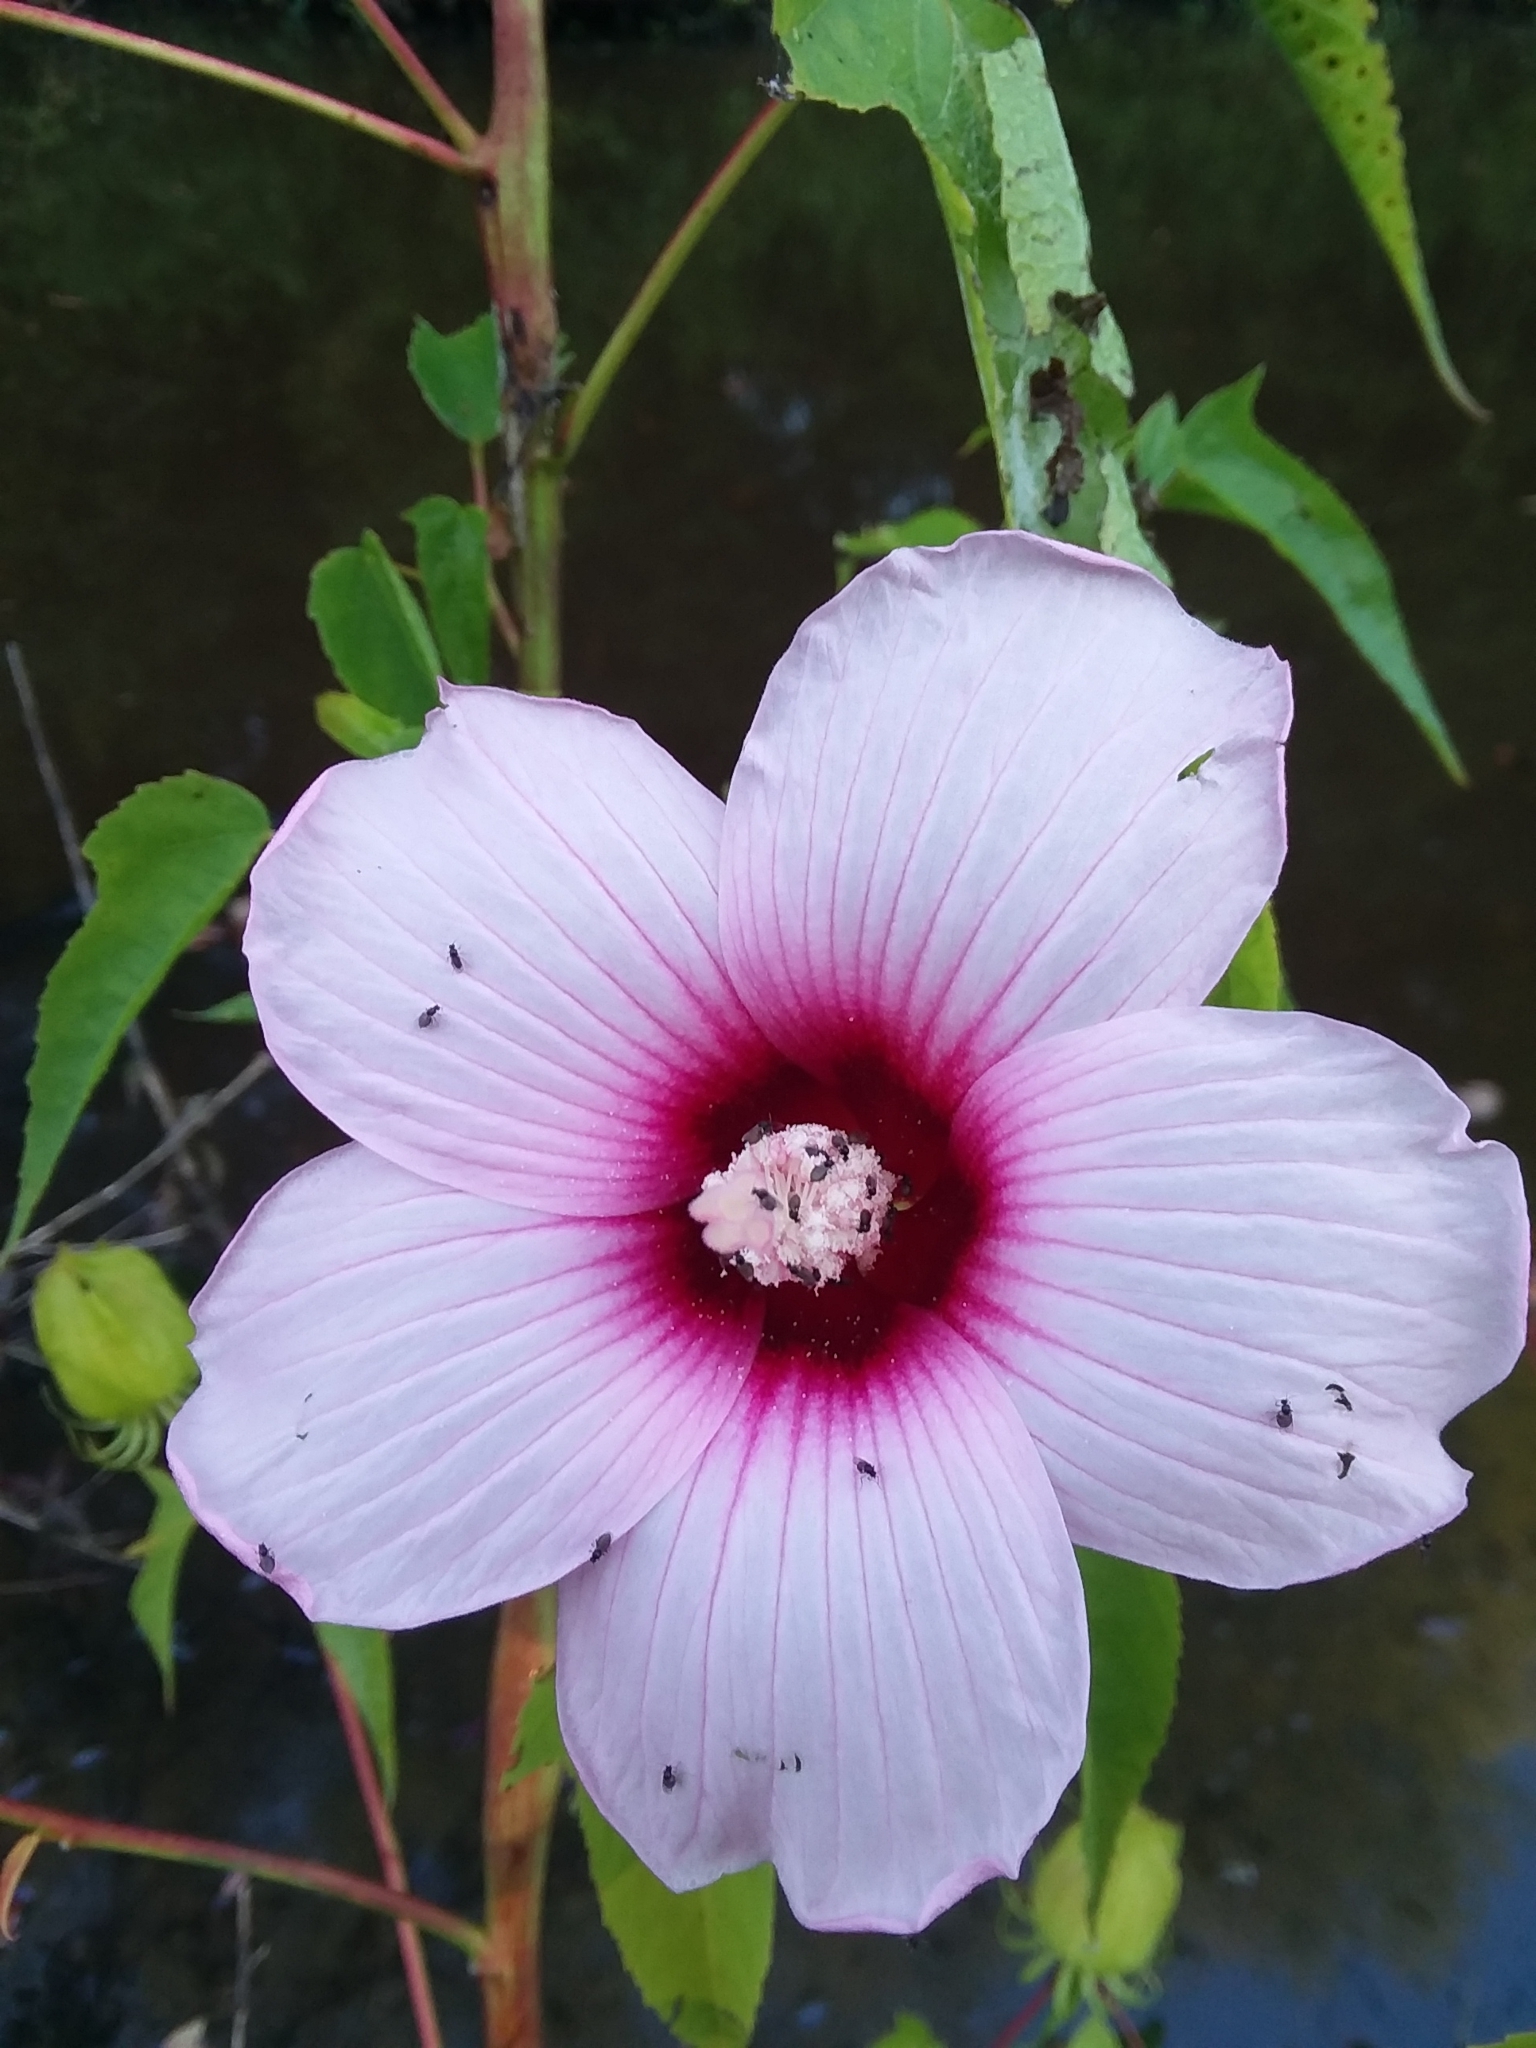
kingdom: Plantae
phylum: Tracheophyta
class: Magnoliopsida
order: Malvales
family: Malvaceae
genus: Hibiscus
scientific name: Hibiscus laevis
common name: Scarlet rose-mallow
